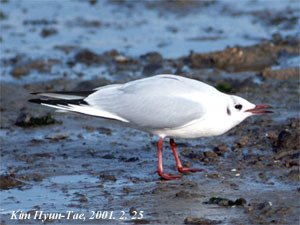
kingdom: Animalia
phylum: Chordata
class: Aves
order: Charadriiformes
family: Laridae
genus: Chroicocephalus
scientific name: Chroicocephalus ridibundus
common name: Black-headed gull
